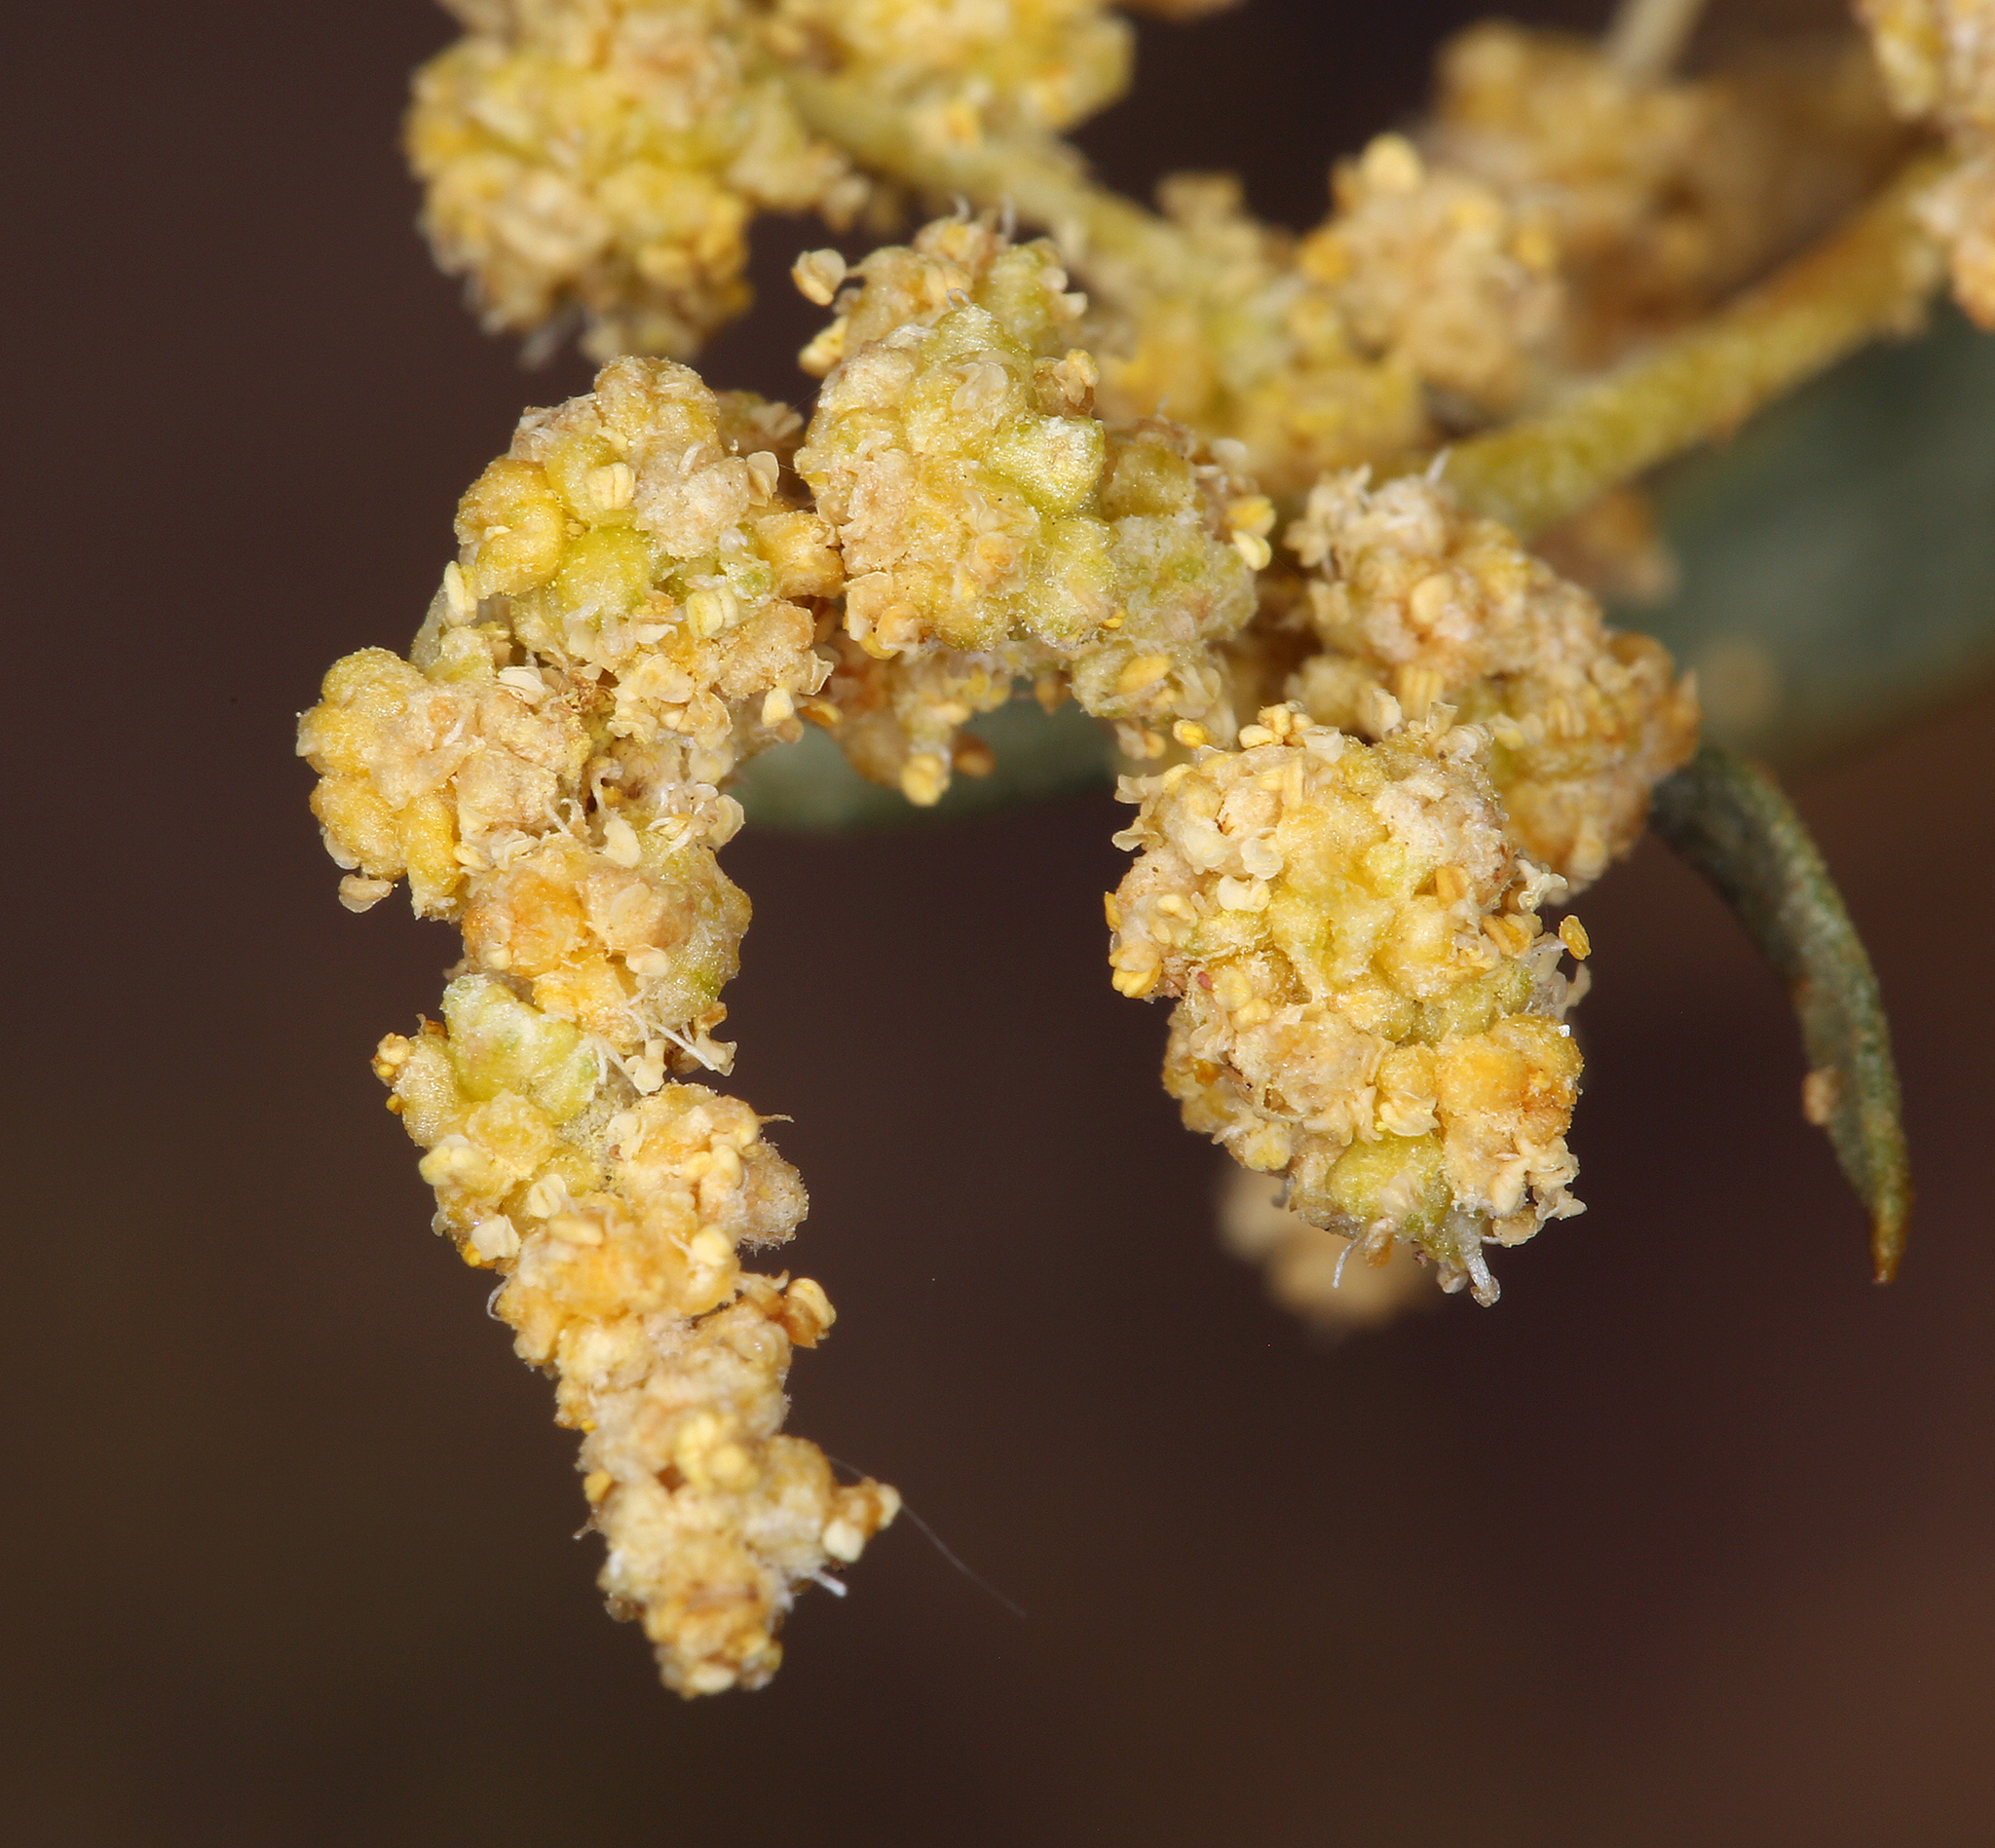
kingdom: Plantae
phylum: Tracheophyta
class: Magnoliopsida
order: Caryophyllales
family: Amaranthaceae
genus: Atriplex
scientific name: Atriplex canescens
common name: Four-wing saltbush
